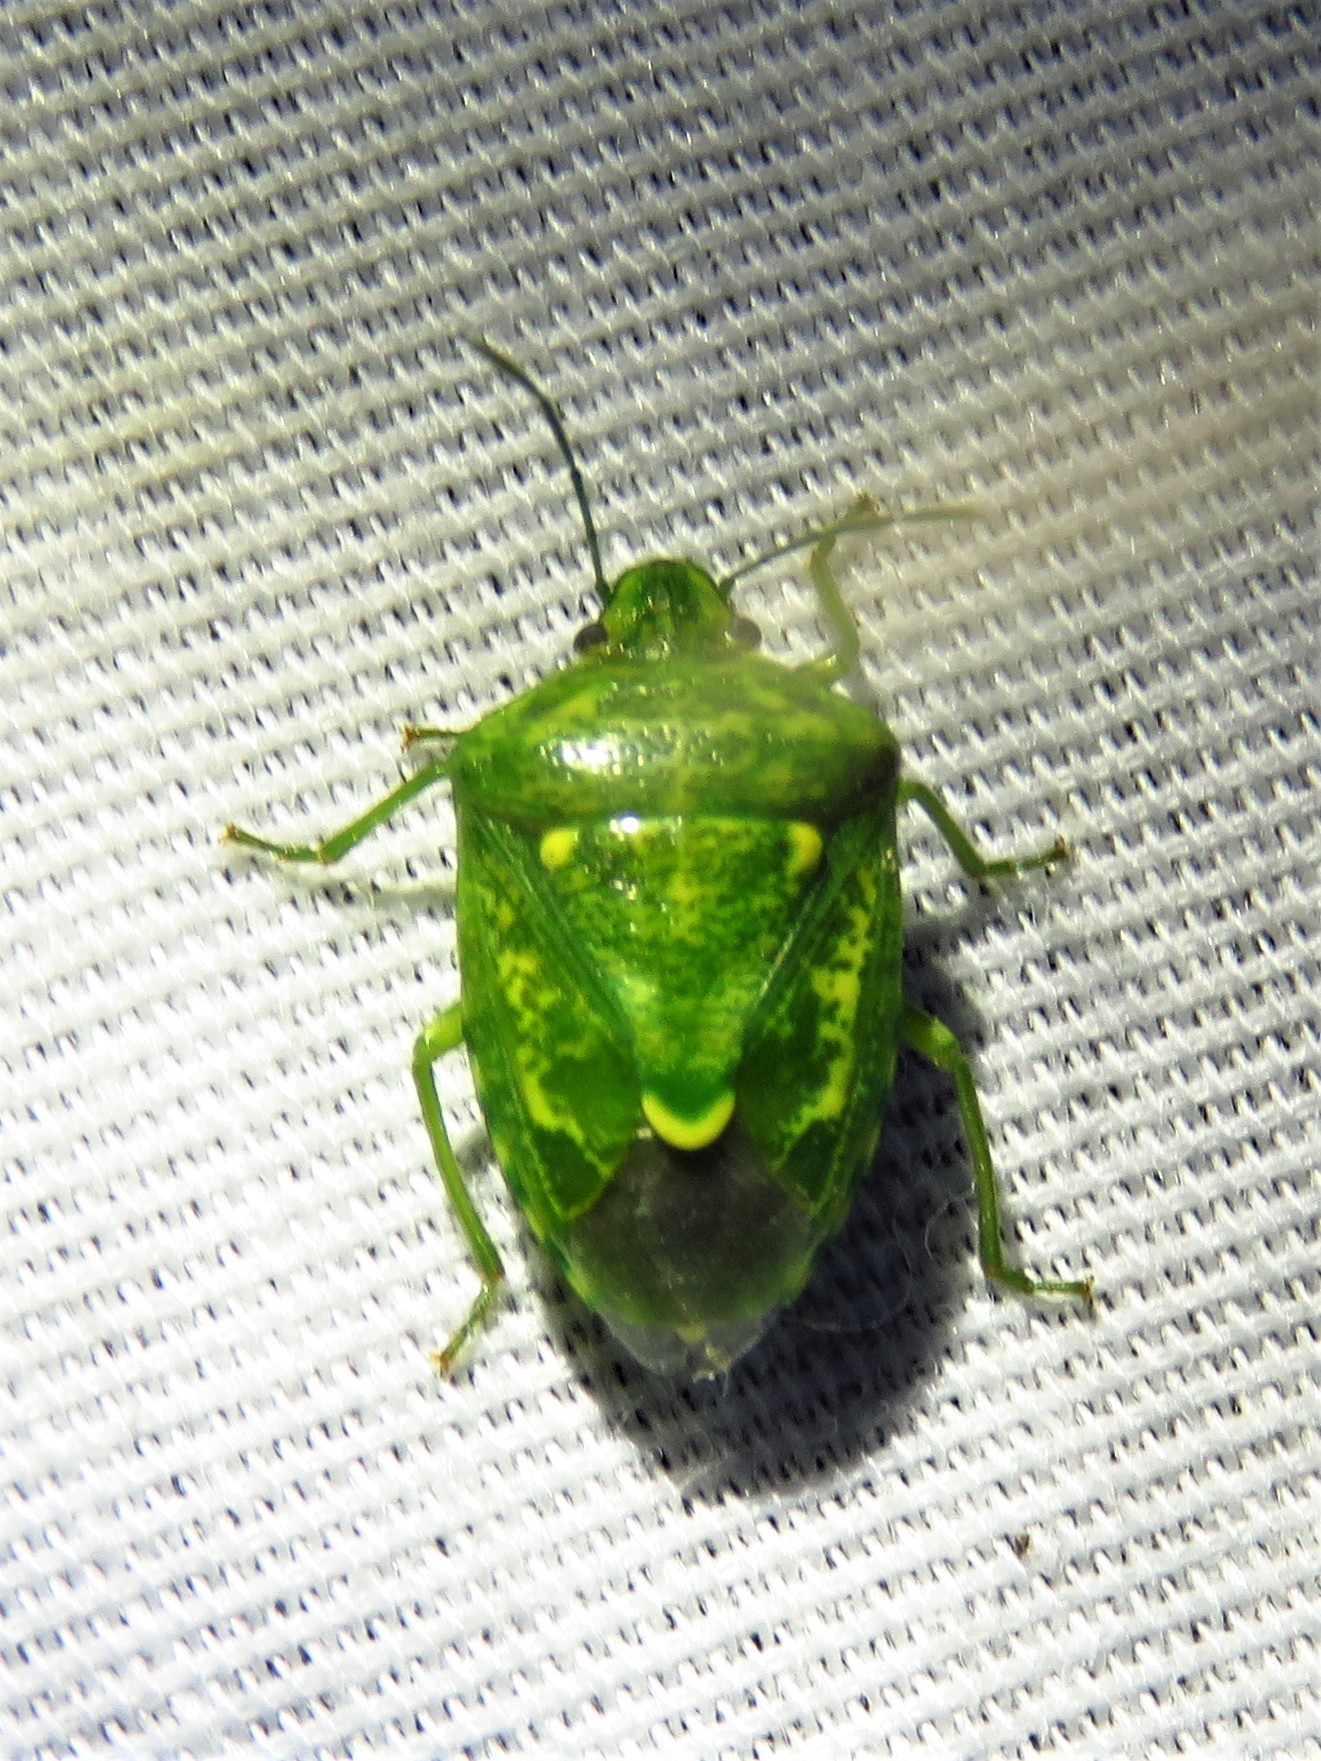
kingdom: Animalia
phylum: Arthropoda
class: Insecta
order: Hemiptera
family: Pentatomidae
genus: Banasa
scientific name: Banasa euchlora
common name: Cedar berry bug
